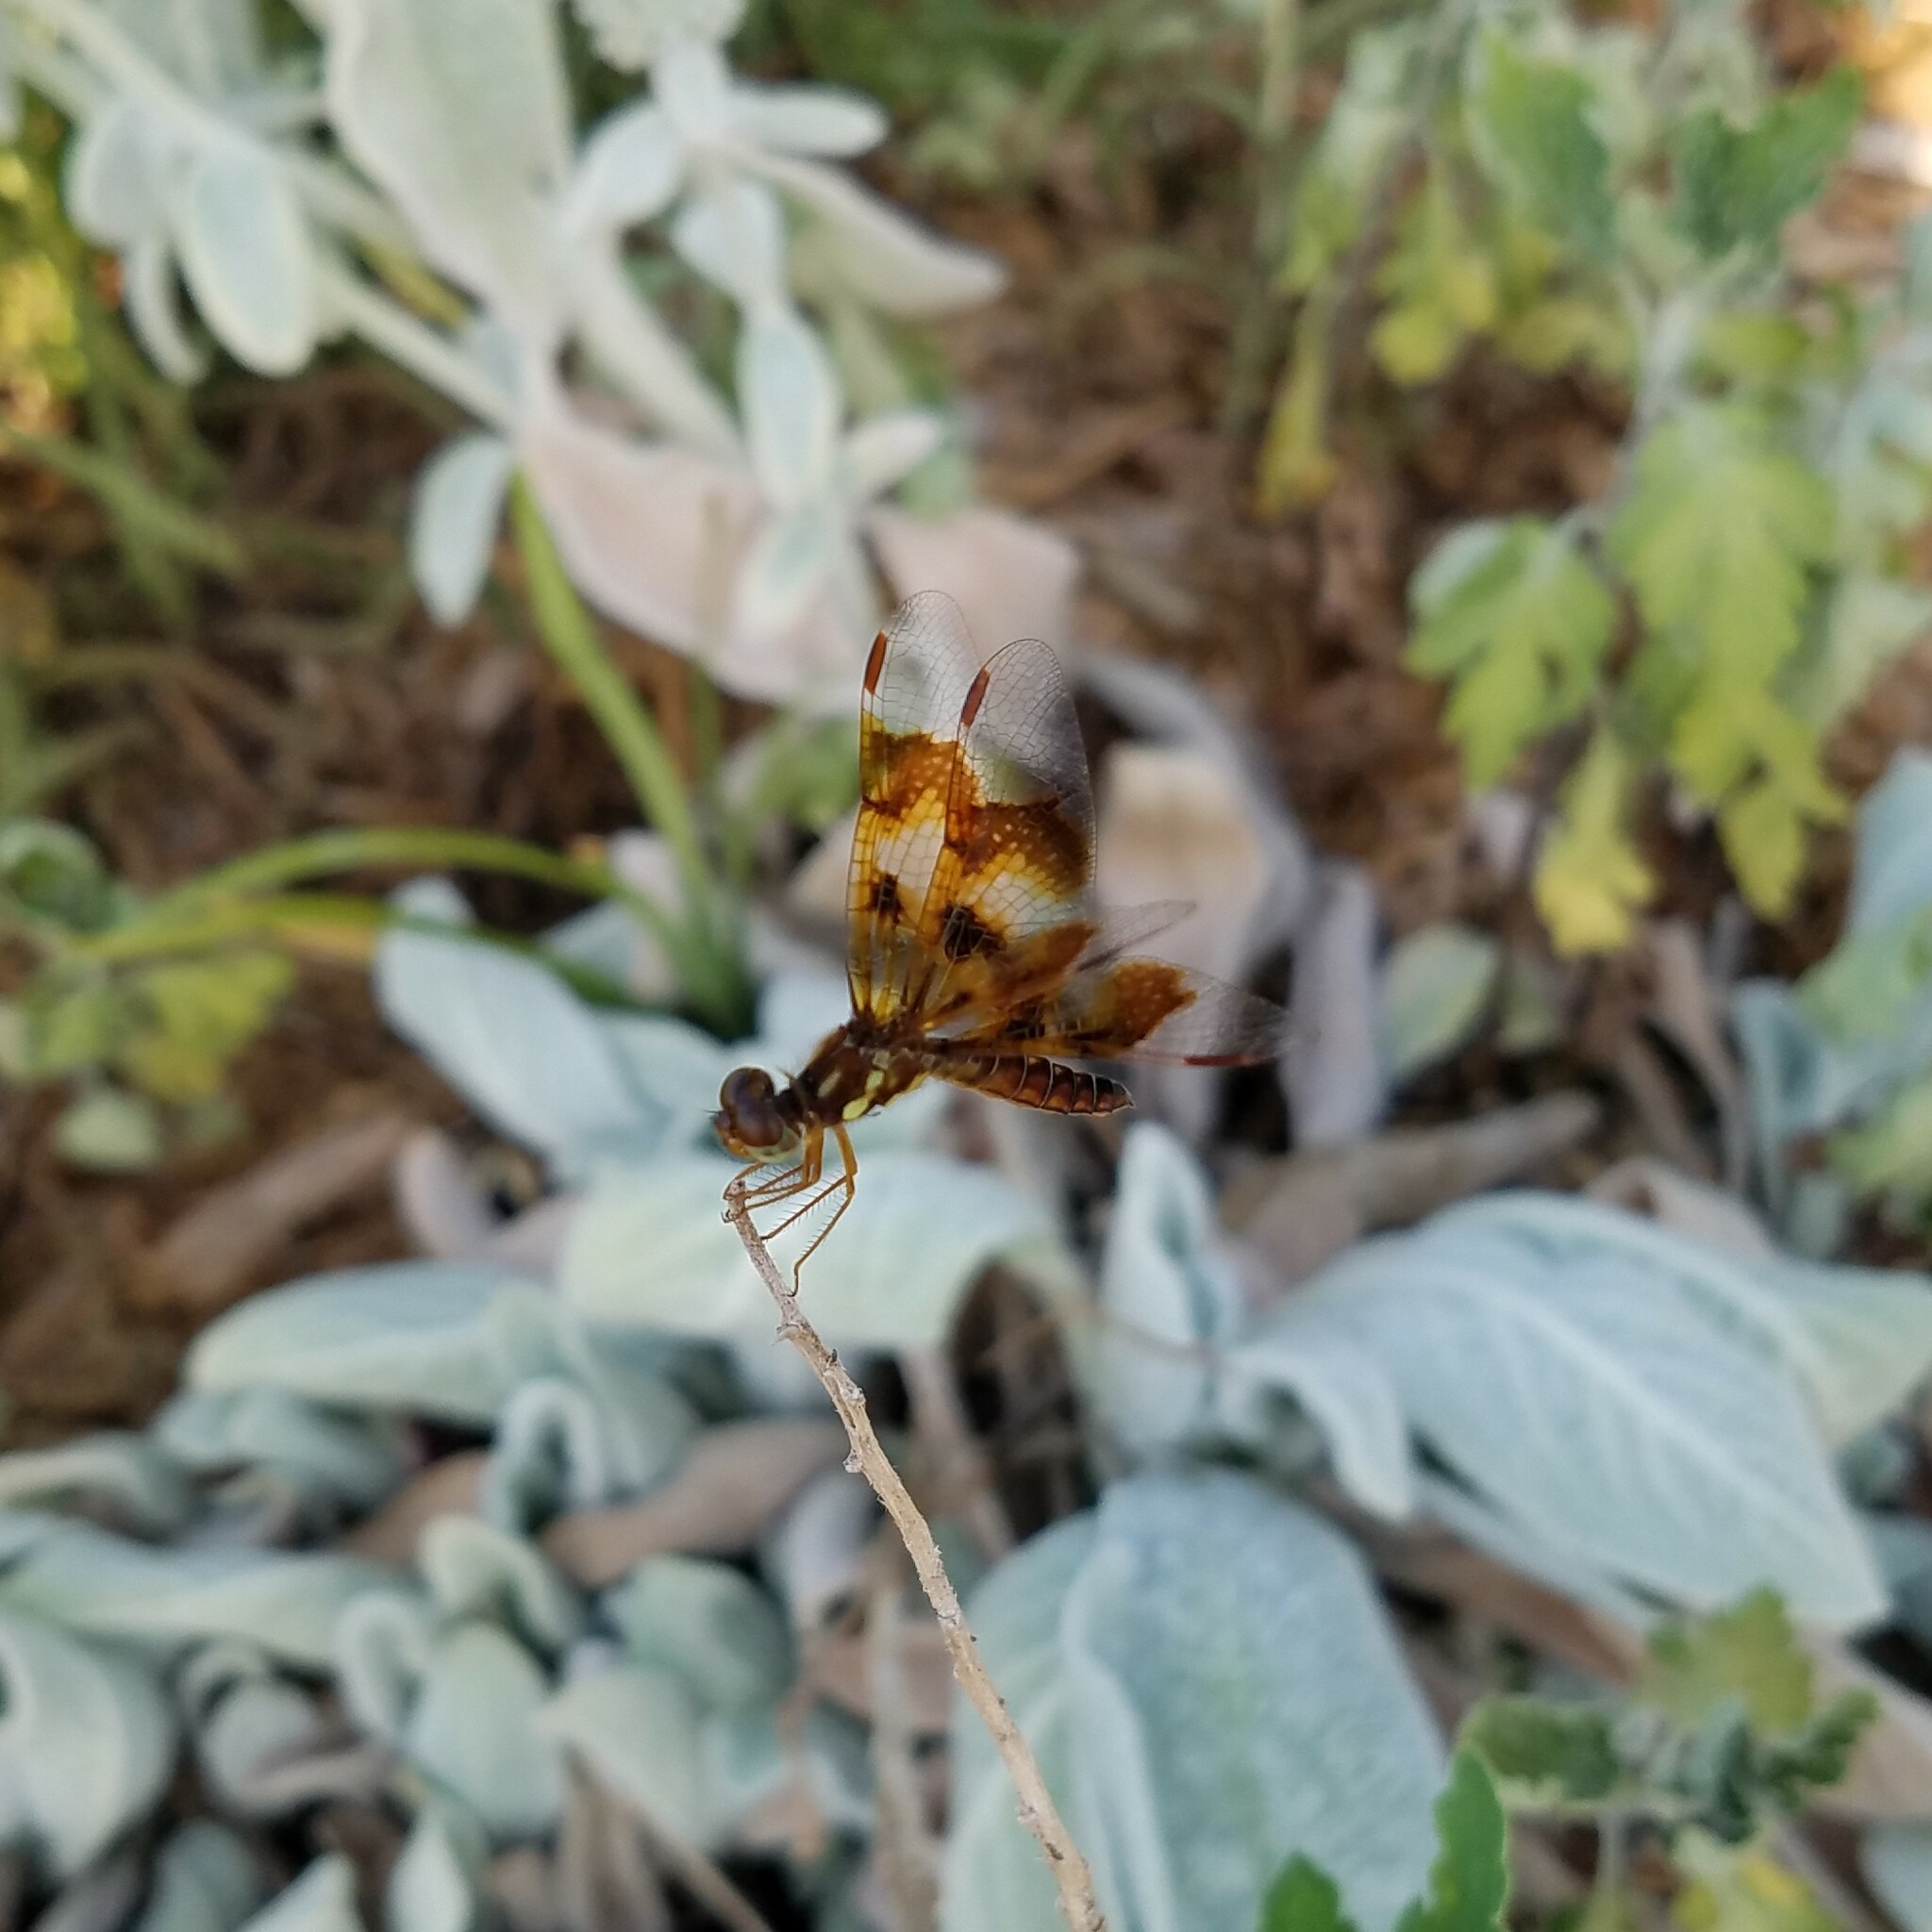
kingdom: Animalia
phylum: Arthropoda
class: Insecta
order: Odonata
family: Libellulidae
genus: Perithemis
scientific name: Perithemis tenera
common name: Eastern amberwing
